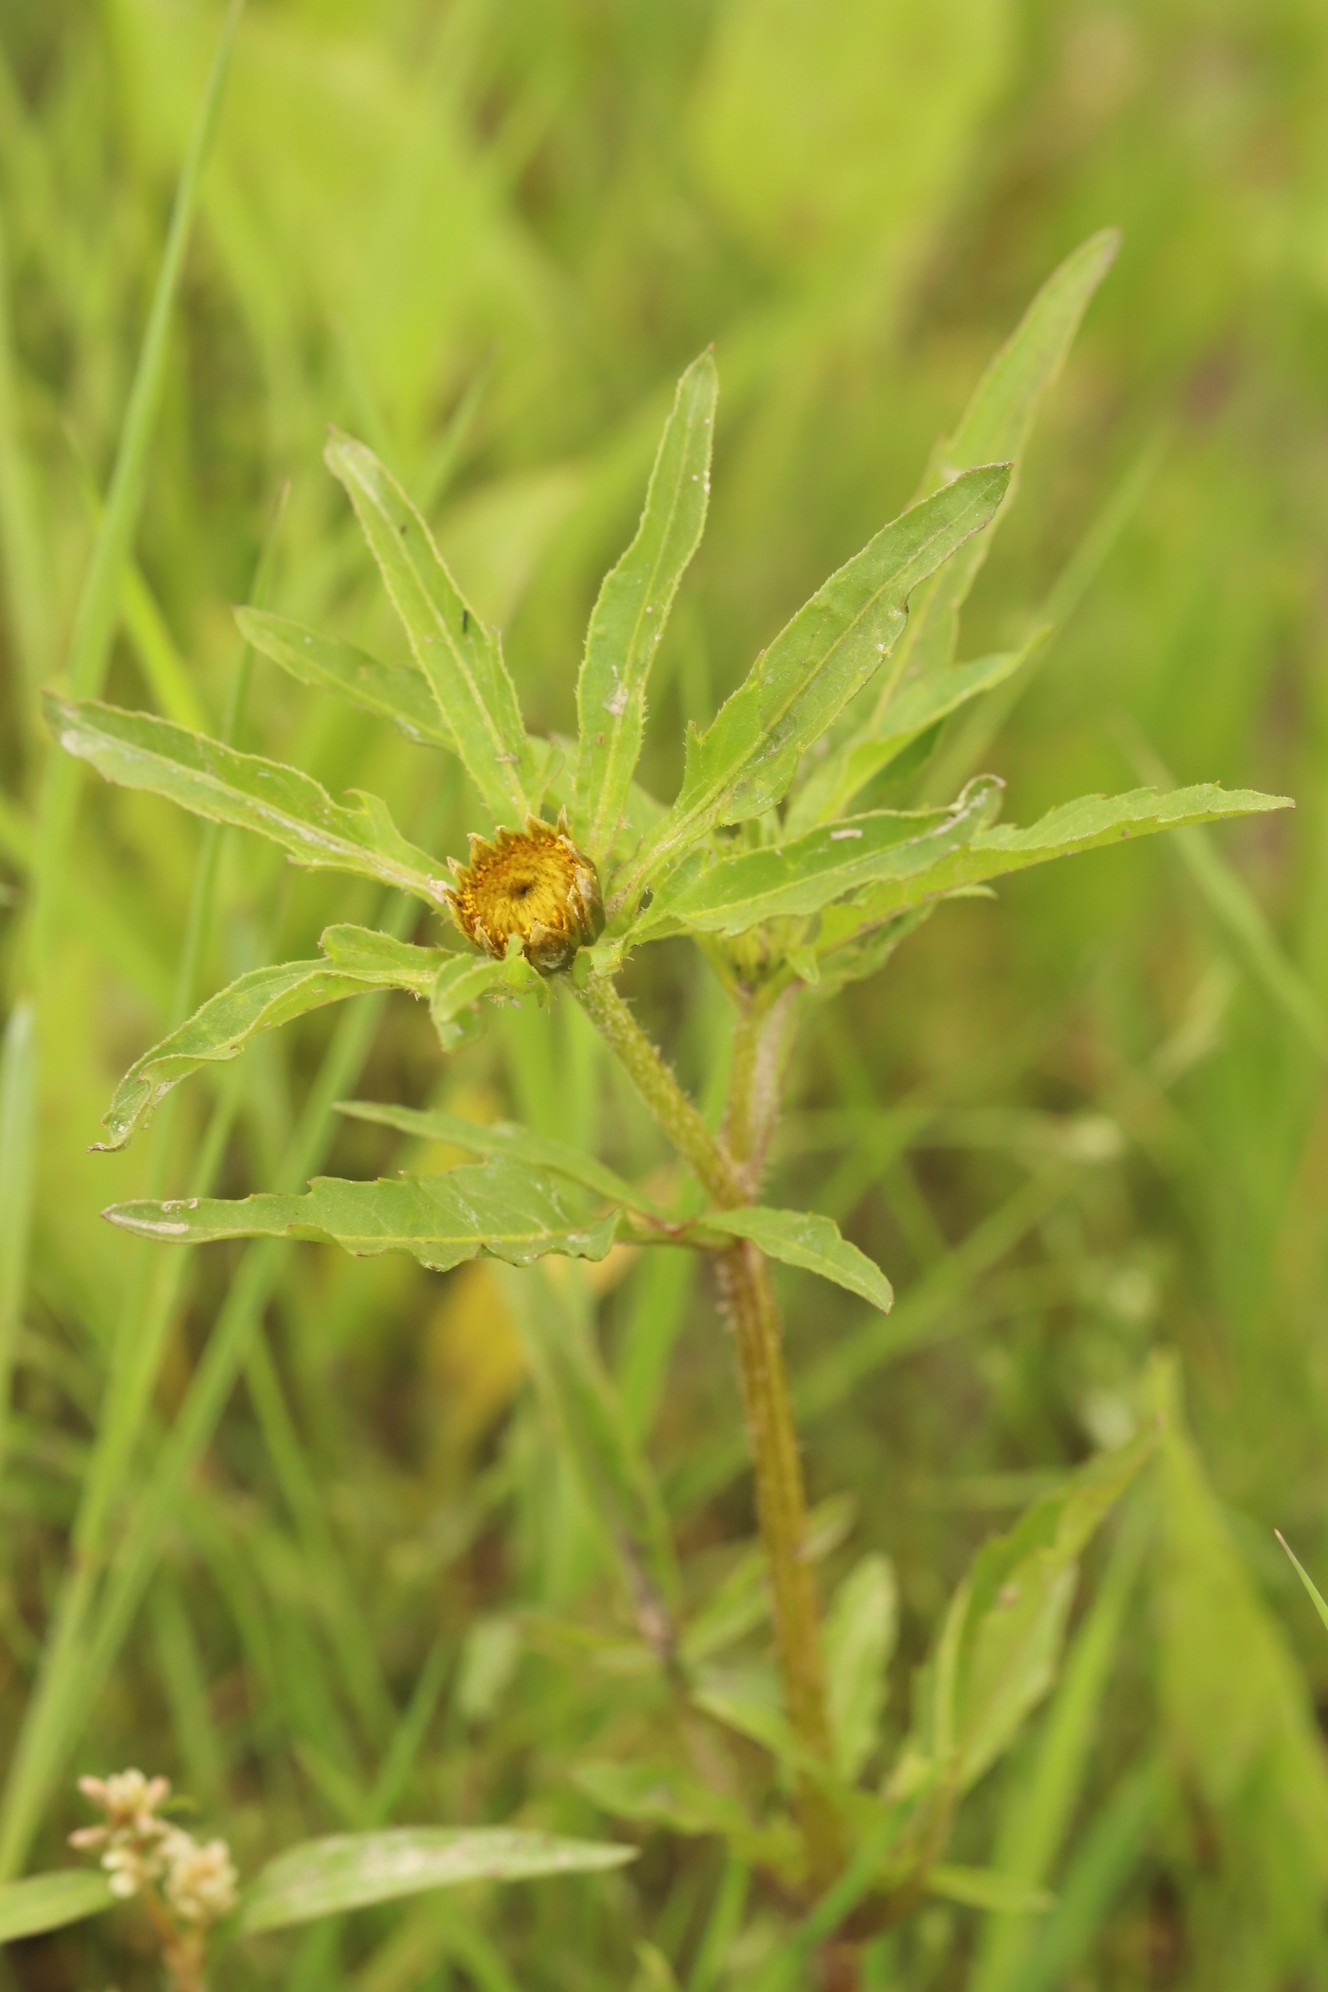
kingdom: Plantae
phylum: Tracheophyta
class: Magnoliopsida
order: Asterales
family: Asteraceae
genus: Bidens
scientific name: Bidens radiata
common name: Radiating bur-marigold
